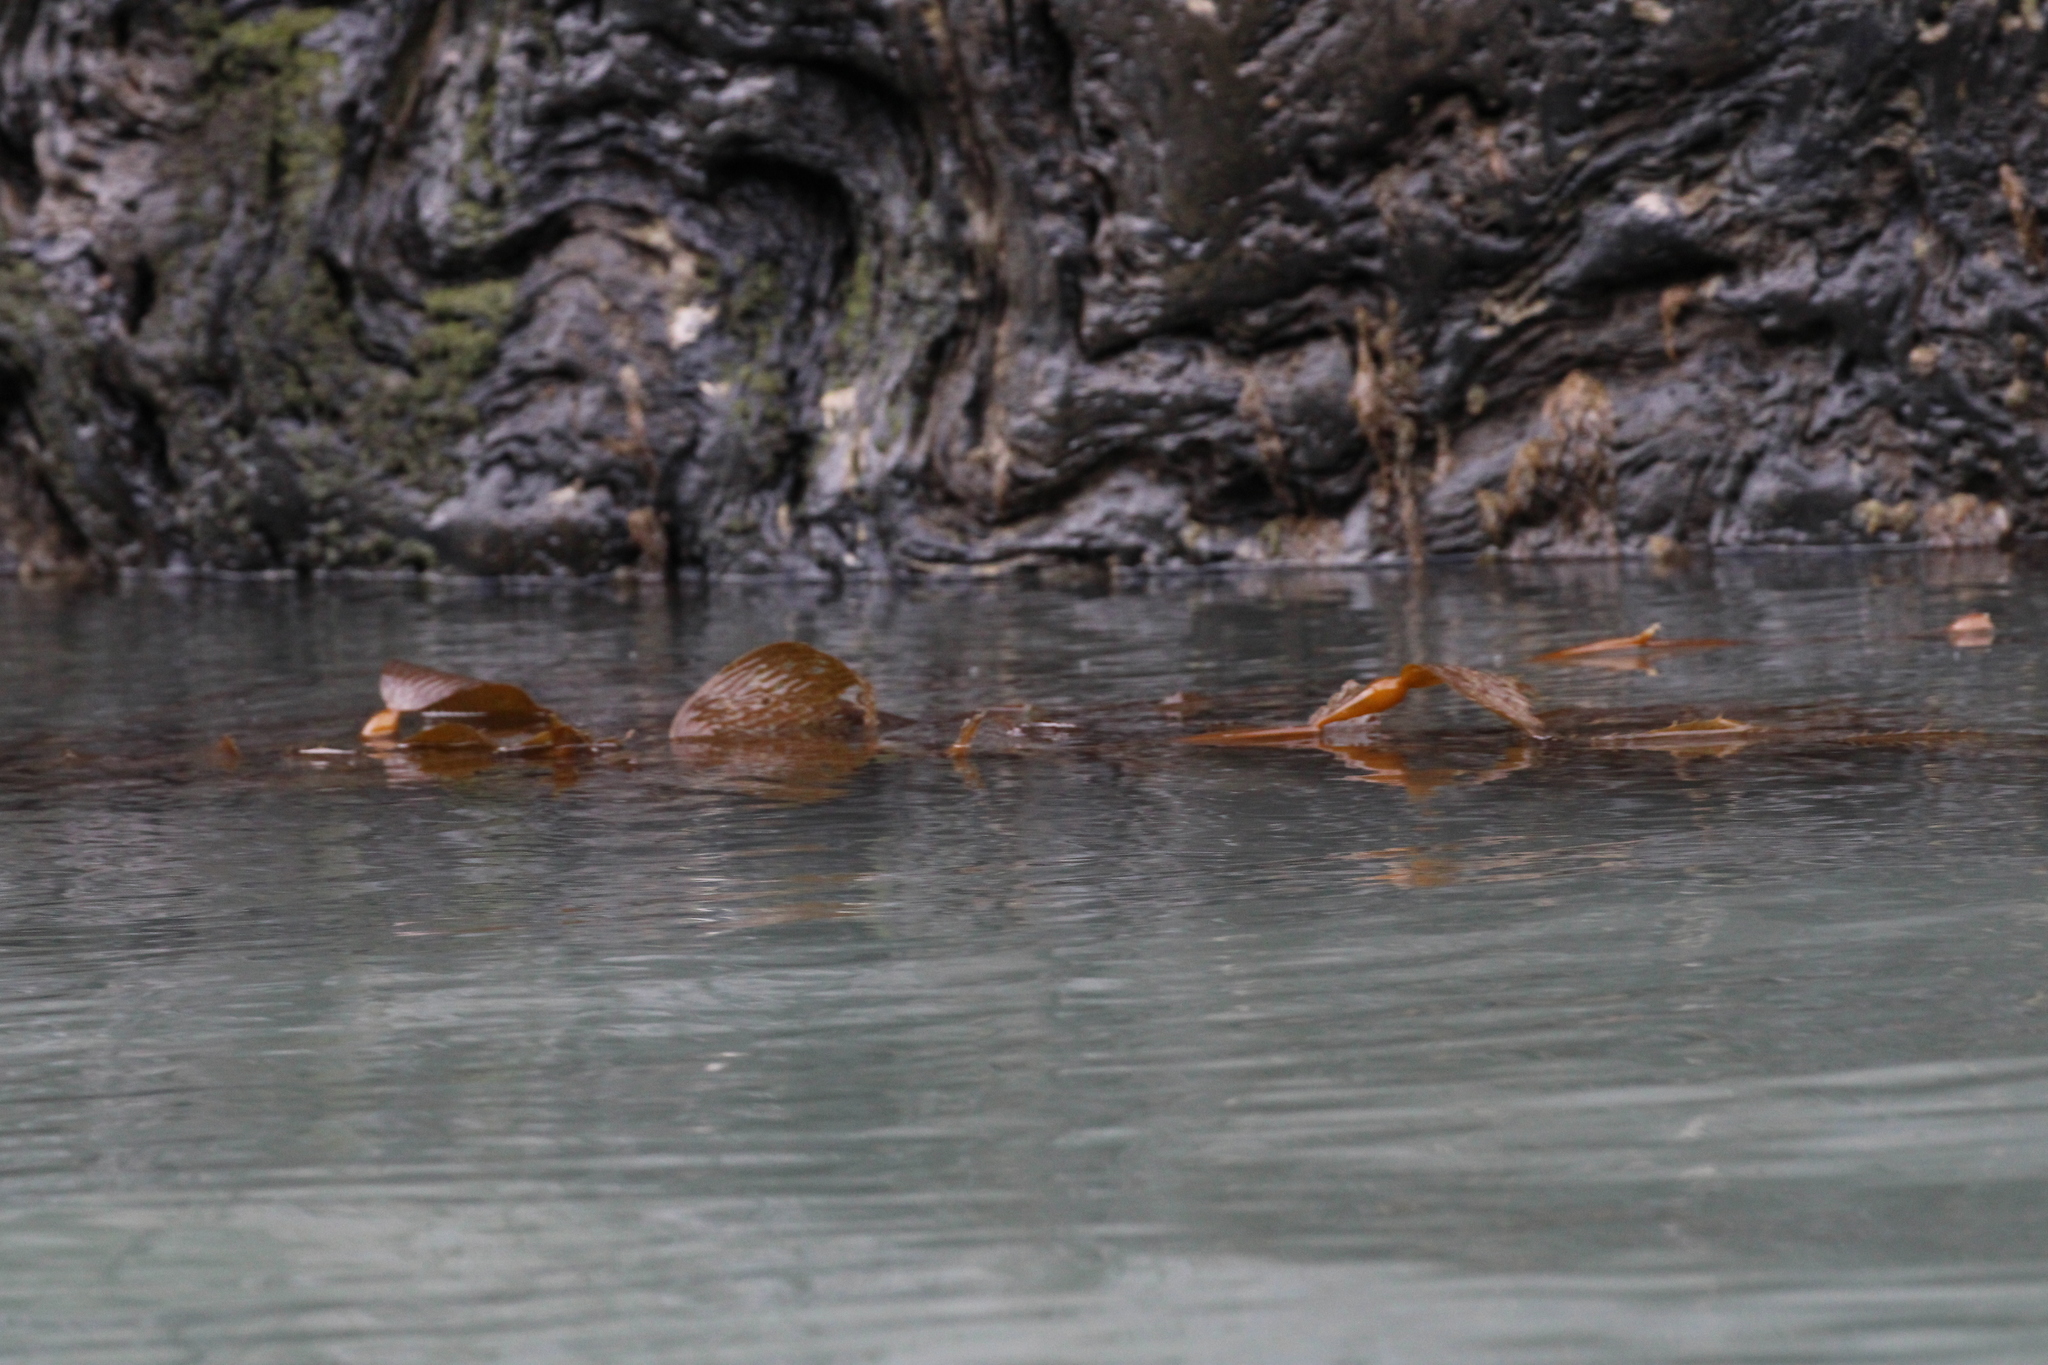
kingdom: Chromista
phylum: Ochrophyta
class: Phaeophyceae
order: Laminariales
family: Laminariaceae
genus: Macrocystis
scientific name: Macrocystis pyrifera
